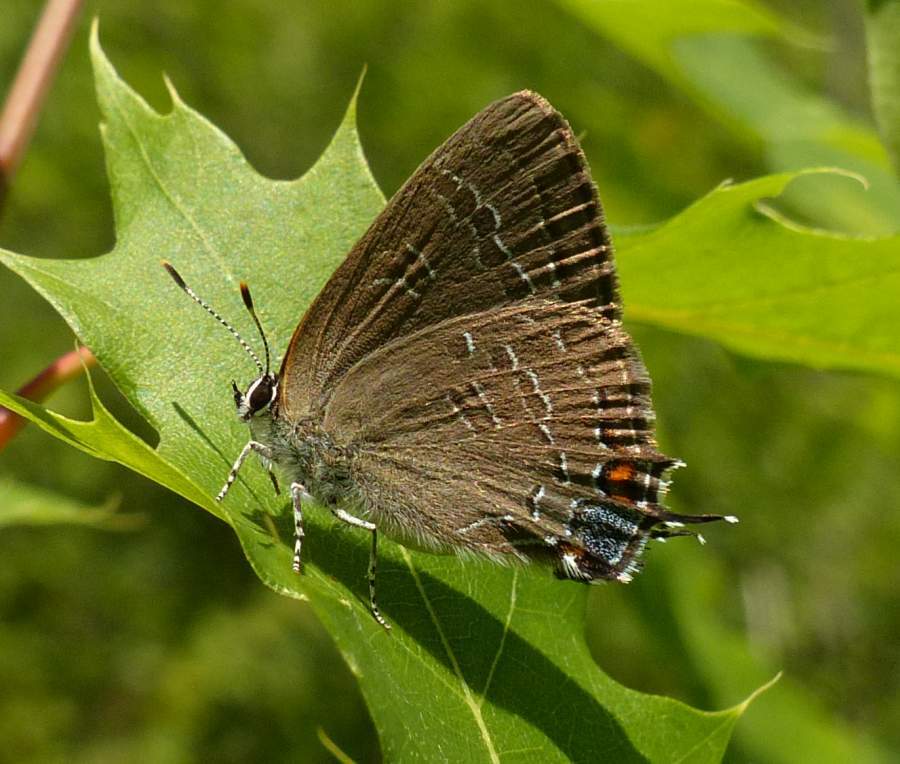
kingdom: Animalia
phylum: Arthropoda
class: Insecta
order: Lepidoptera
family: Lycaenidae
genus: Satyrium
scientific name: Satyrium calanus
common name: Banded hairstreak
